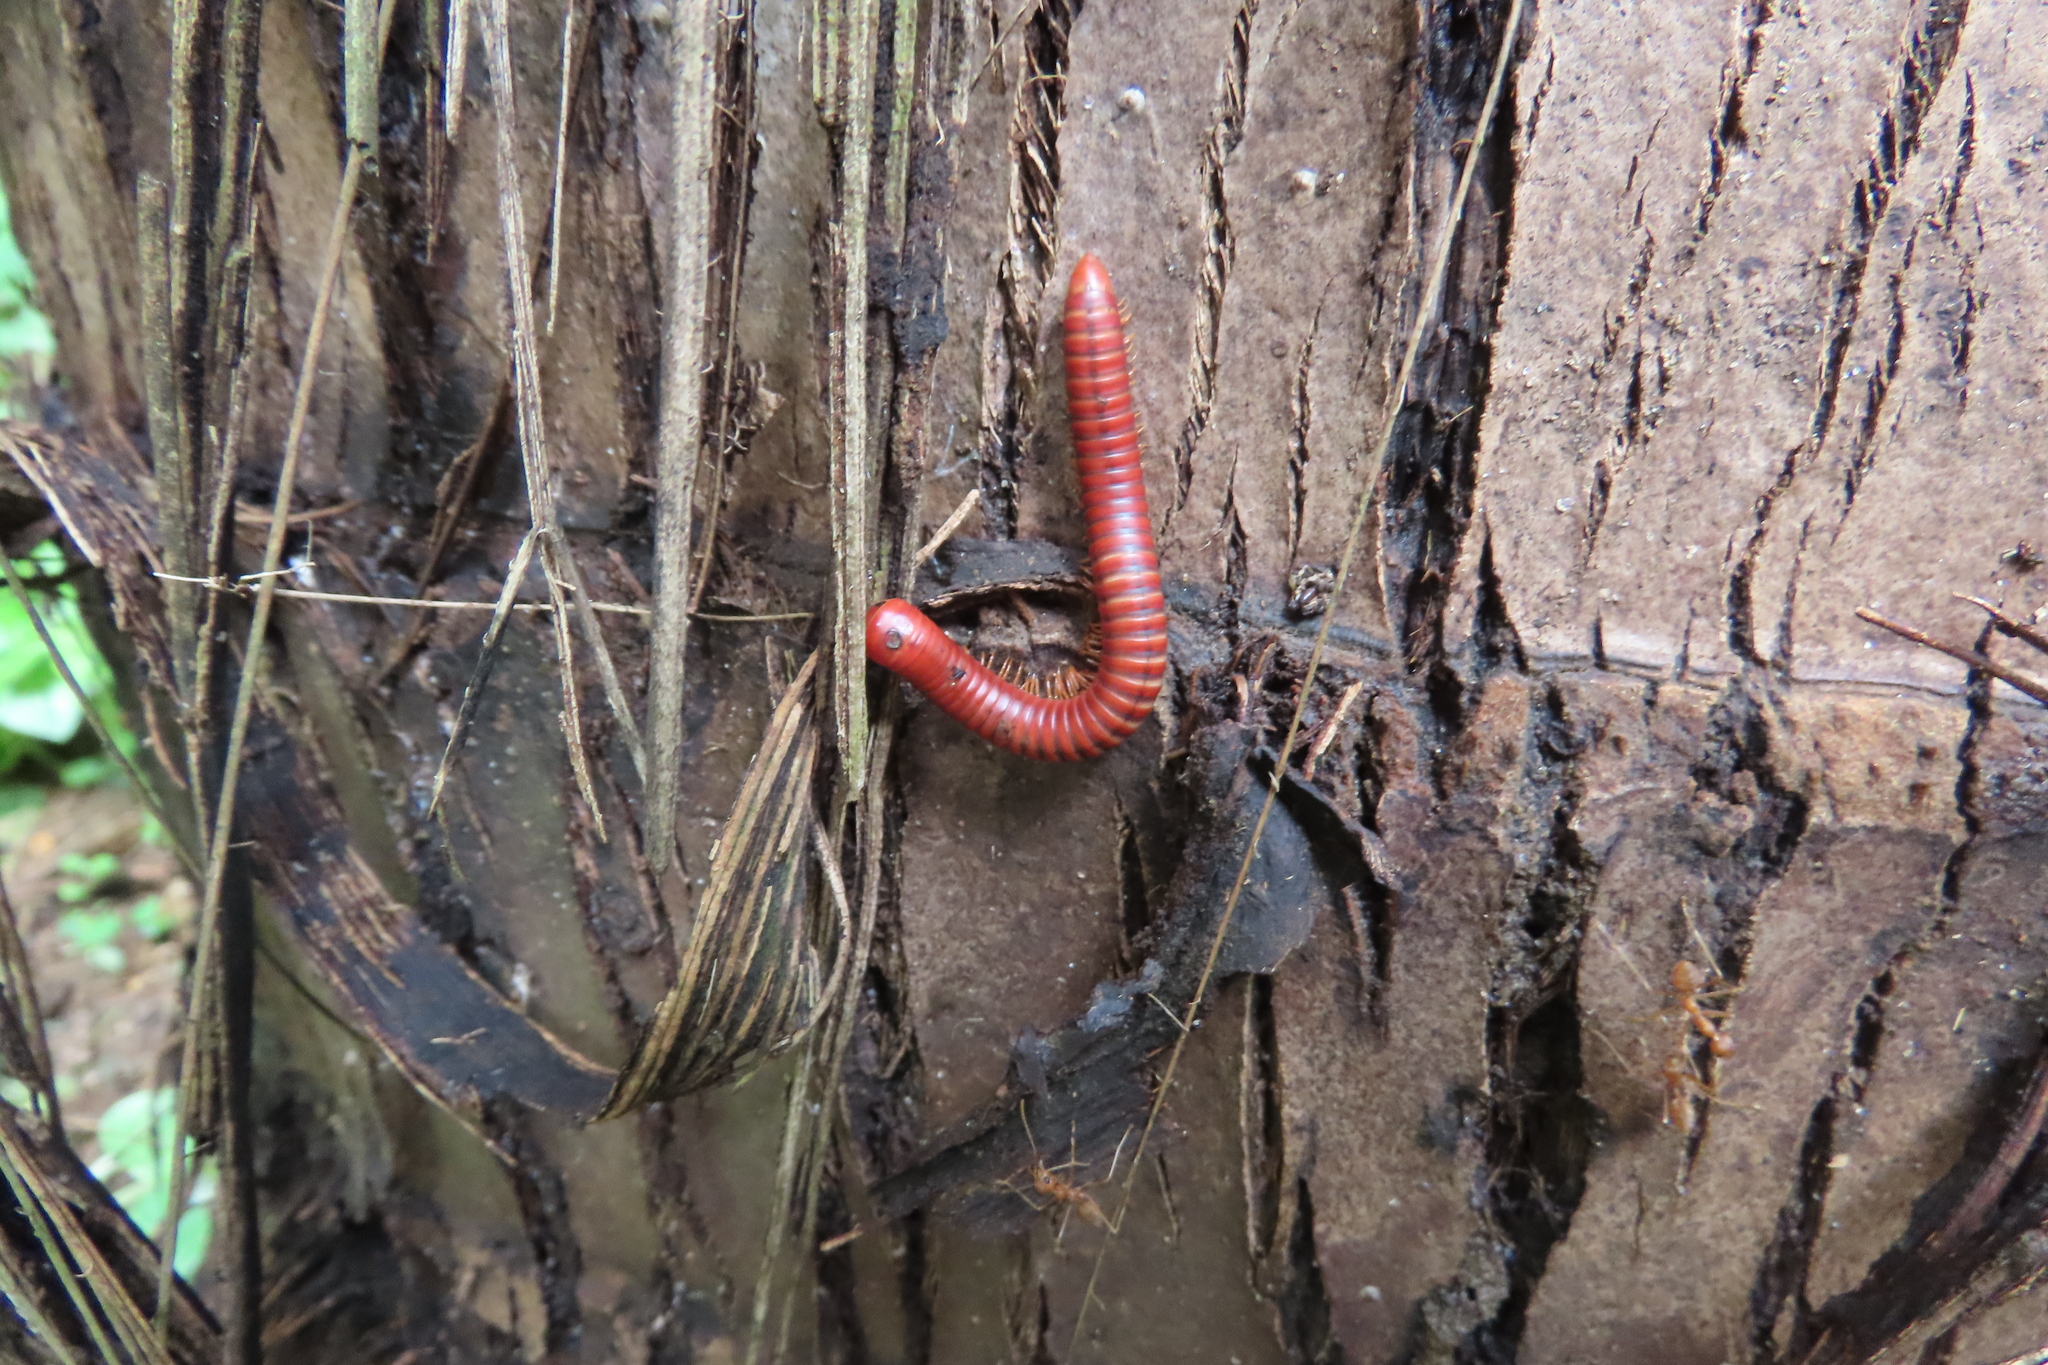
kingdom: Animalia
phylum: Arthropoda
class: Diplopoda
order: Spirobolida
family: Pachybolidae
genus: Trigoniulus
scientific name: Trigoniulus corallinus
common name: Millipede
